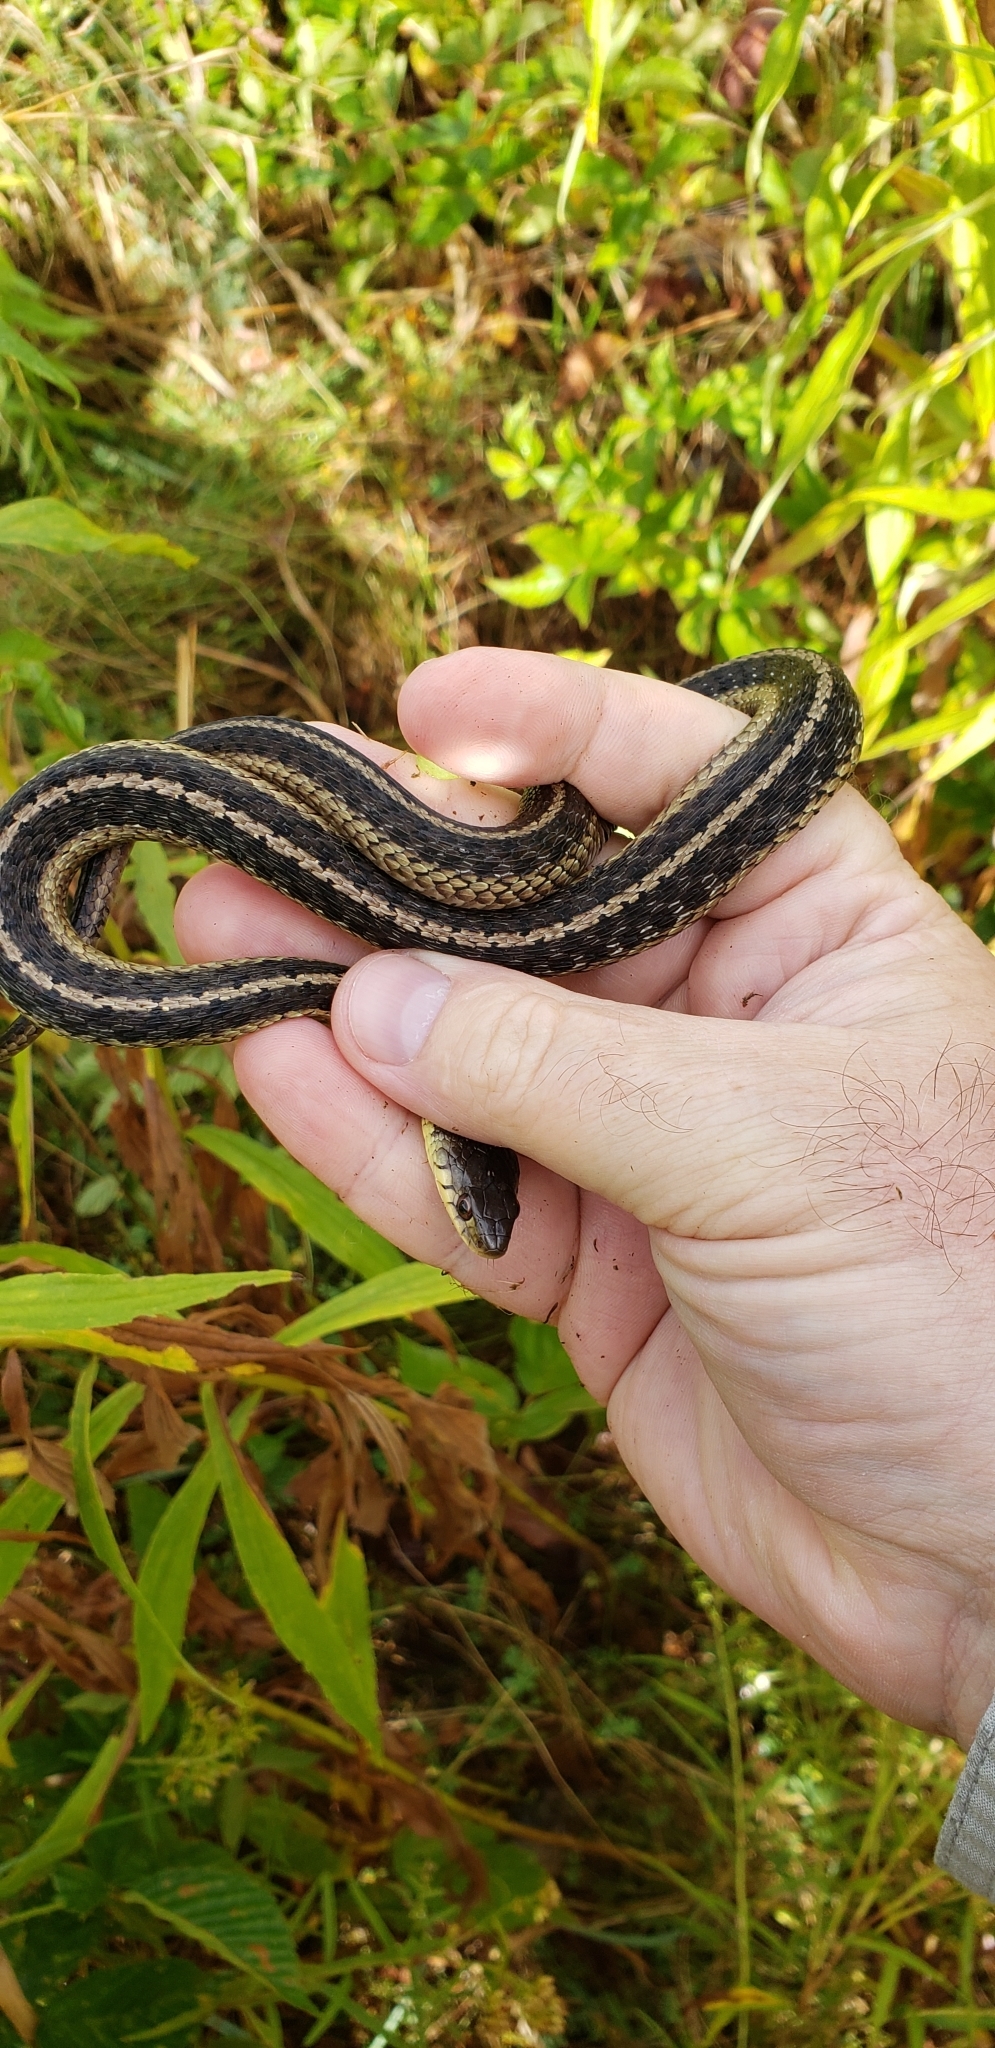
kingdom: Animalia
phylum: Chordata
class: Squamata
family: Colubridae
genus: Thamnophis
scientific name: Thamnophis sirtalis
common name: Common garter snake
